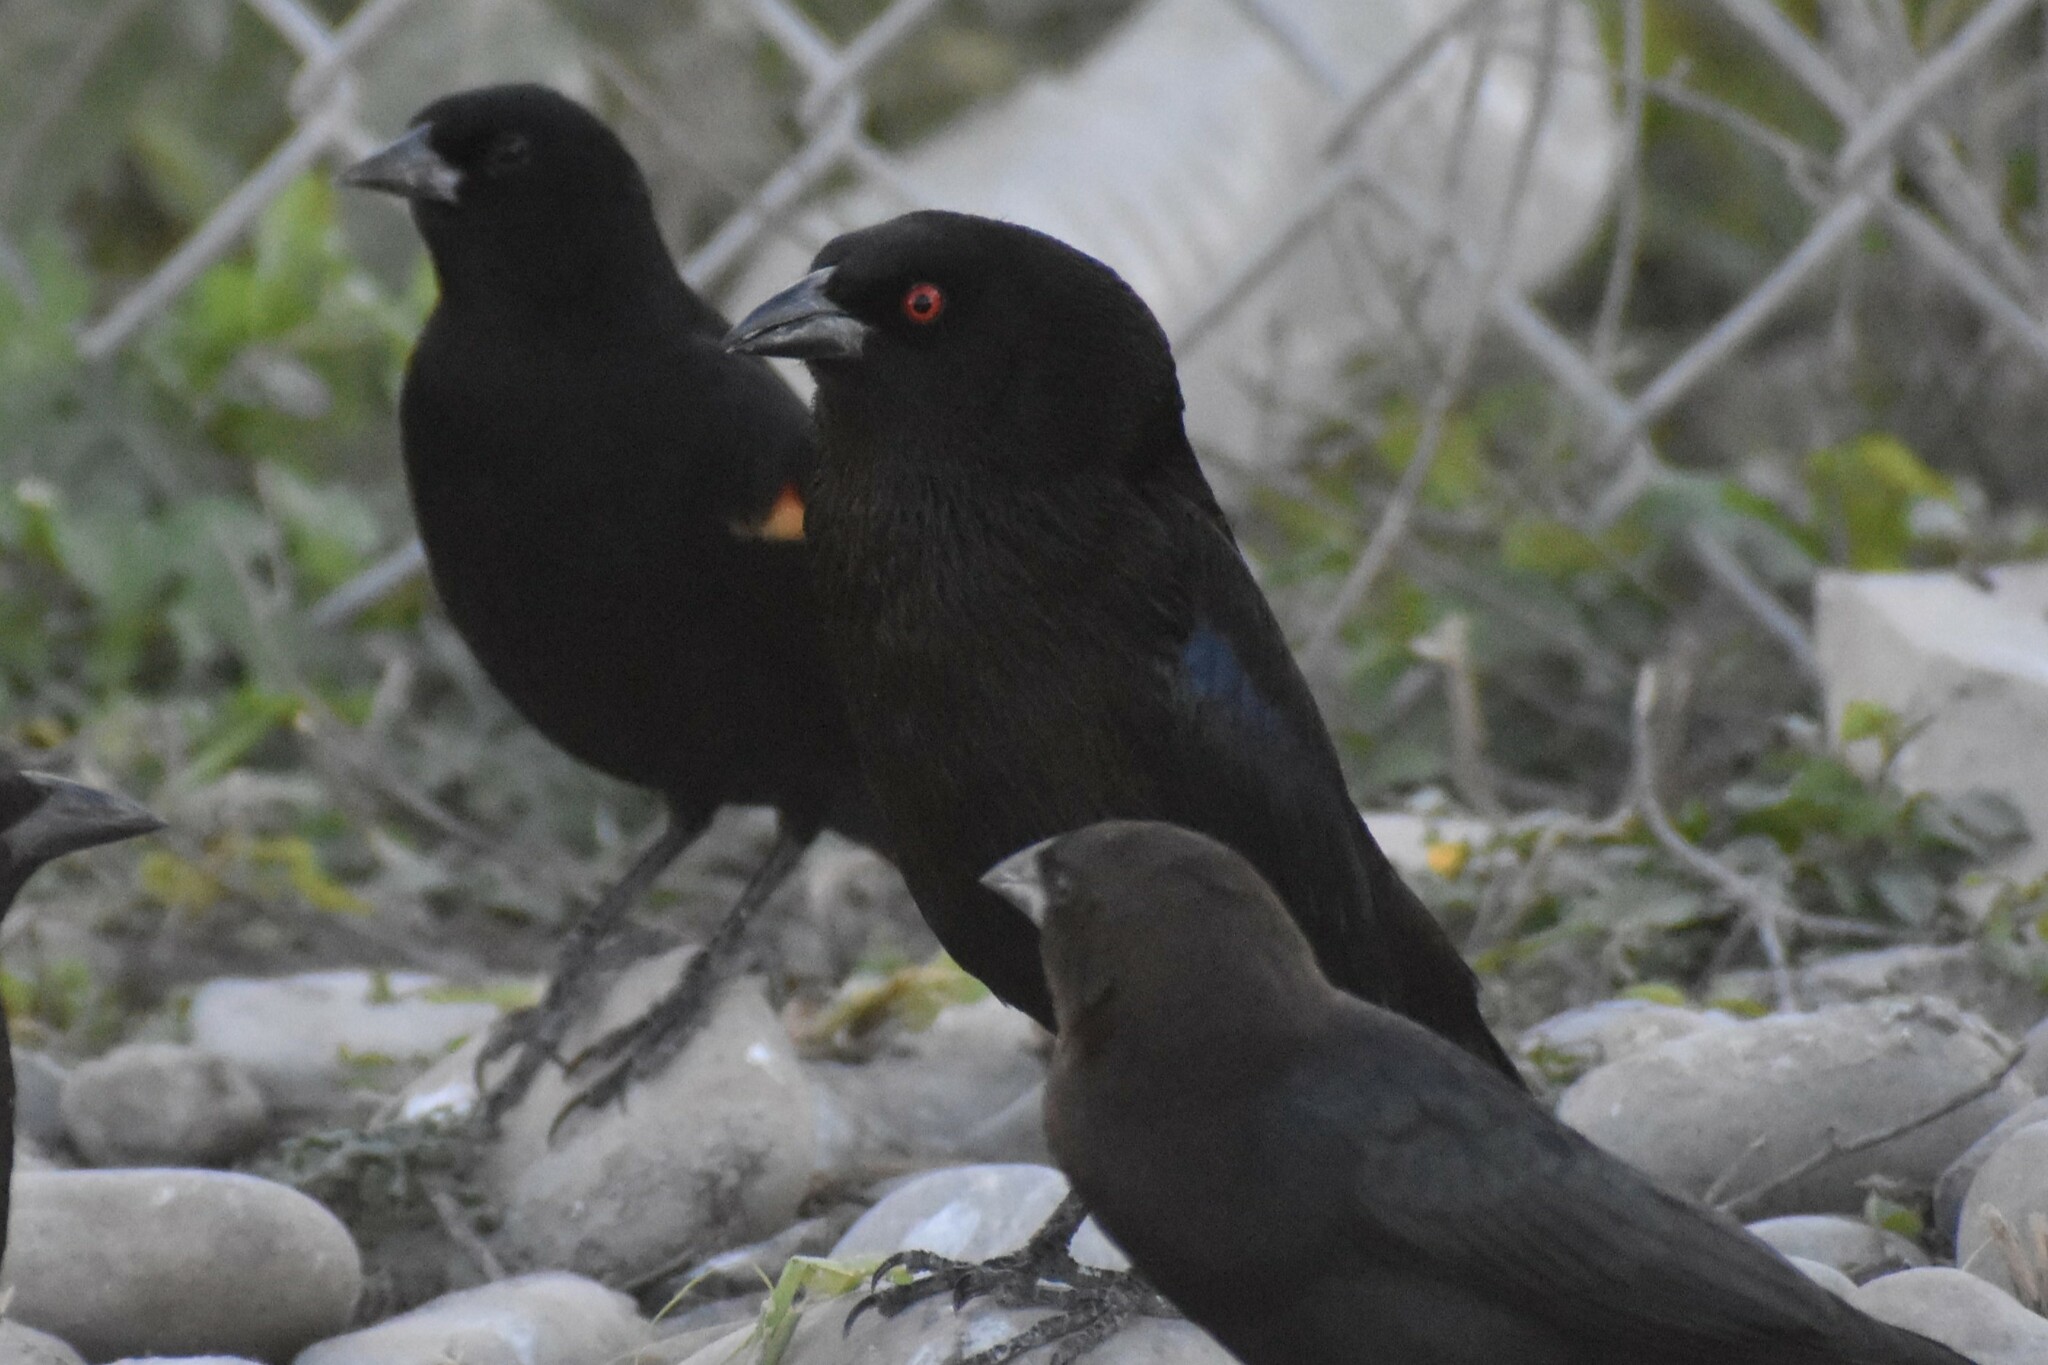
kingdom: Animalia
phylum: Chordata
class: Aves
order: Passeriformes
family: Icteridae
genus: Molothrus
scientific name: Molothrus aeneus
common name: Bronzed cowbird
